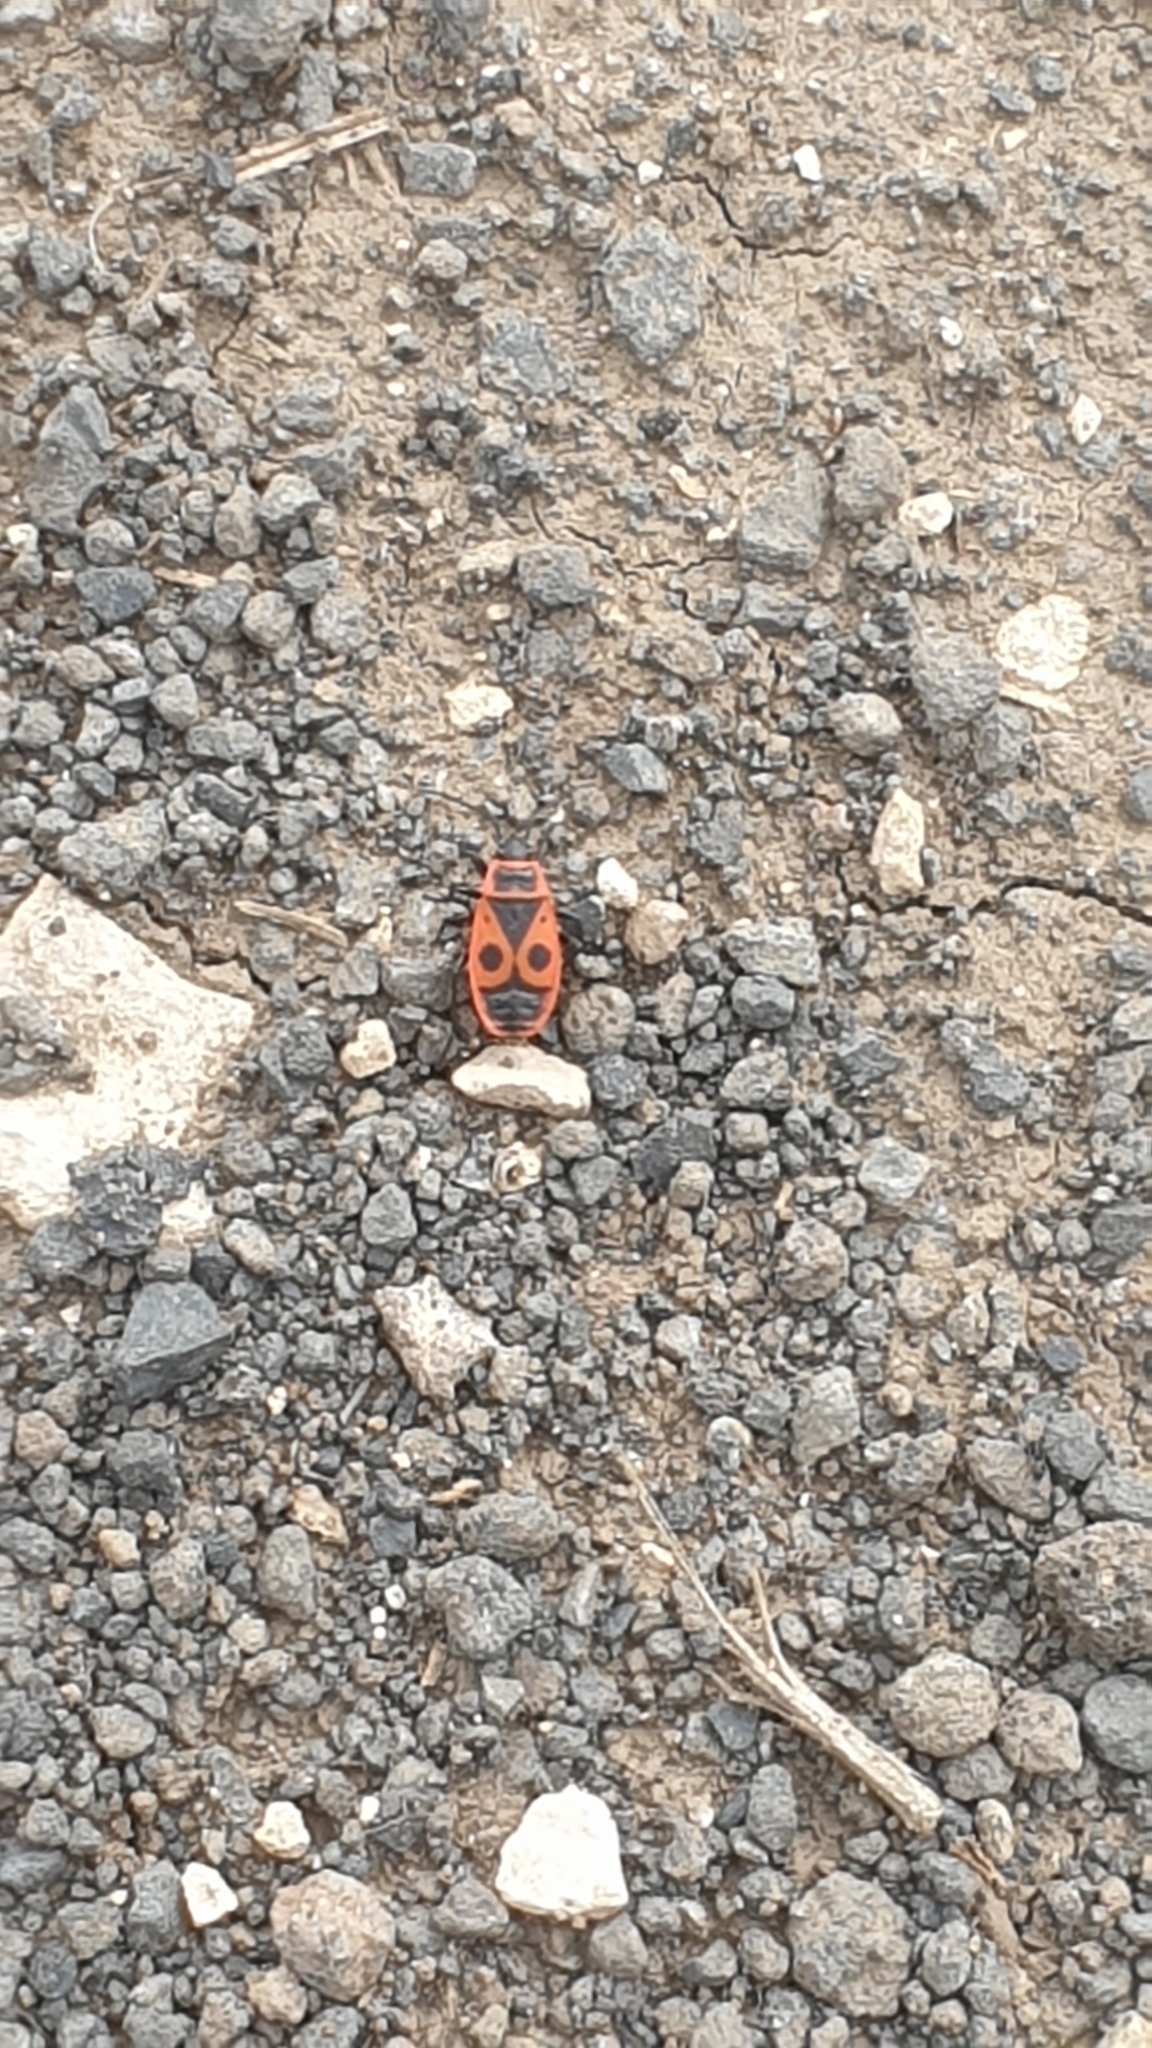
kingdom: Animalia
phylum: Arthropoda
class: Insecta
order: Hemiptera
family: Pyrrhocoridae
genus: Pyrrhocoris
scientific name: Pyrrhocoris apterus
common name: Firebug
